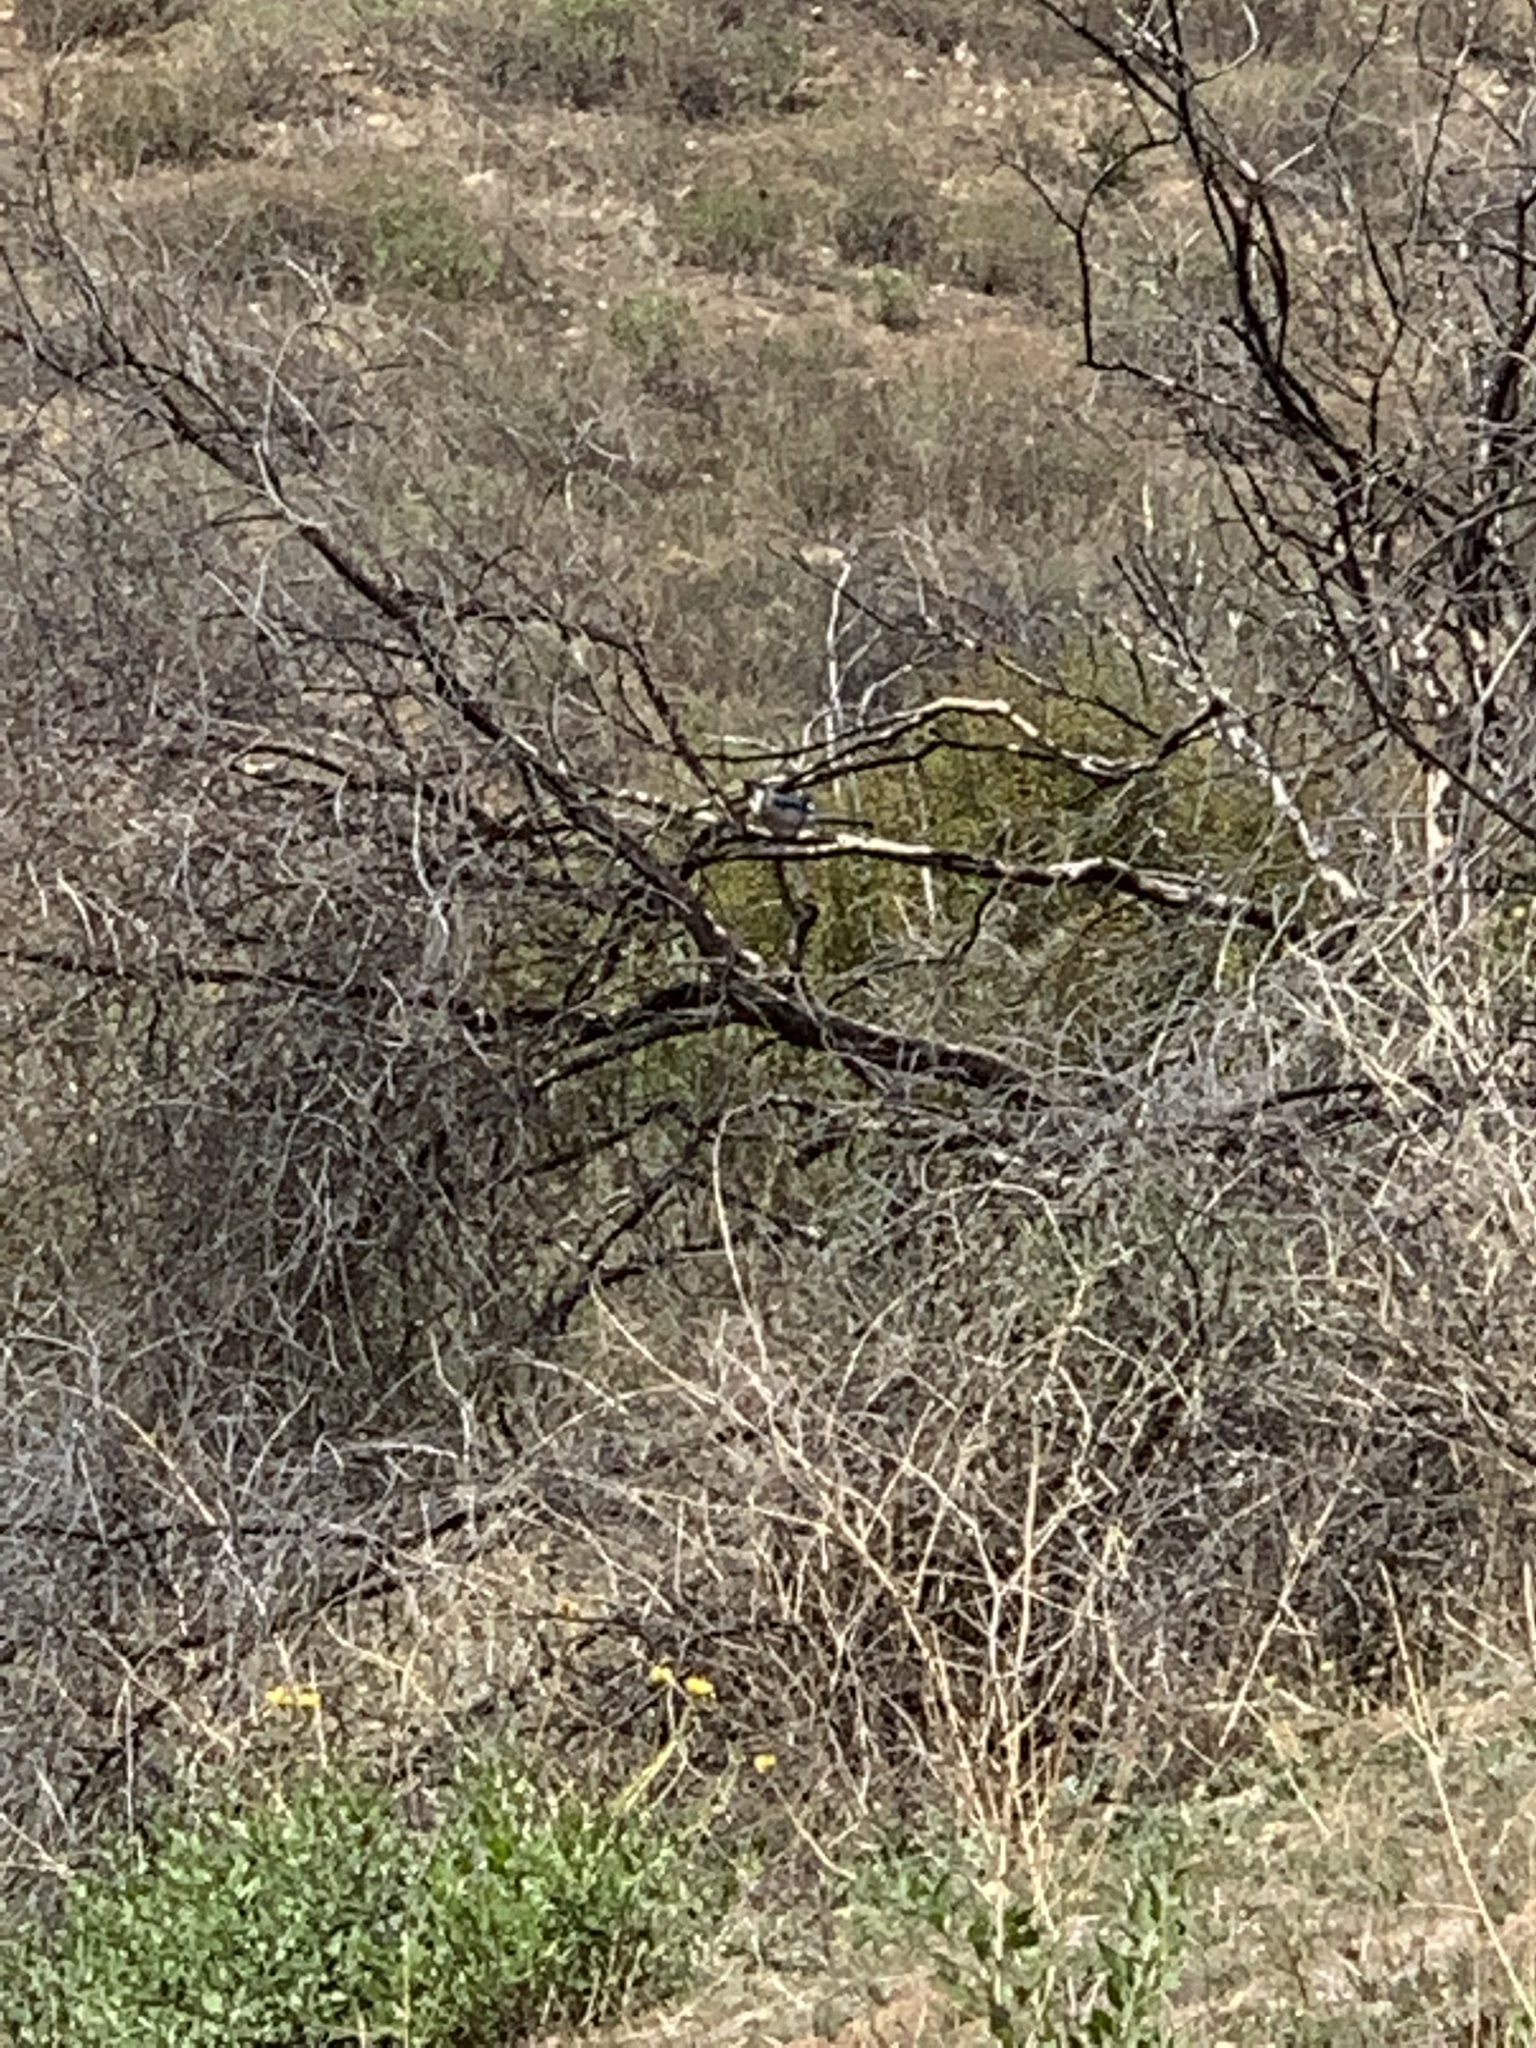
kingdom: Animalia
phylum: Chordata
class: Aves
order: Passeriformes
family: Corvidae
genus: Aphelocoma
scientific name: Aphelocoma californica
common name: California scrub-jay
